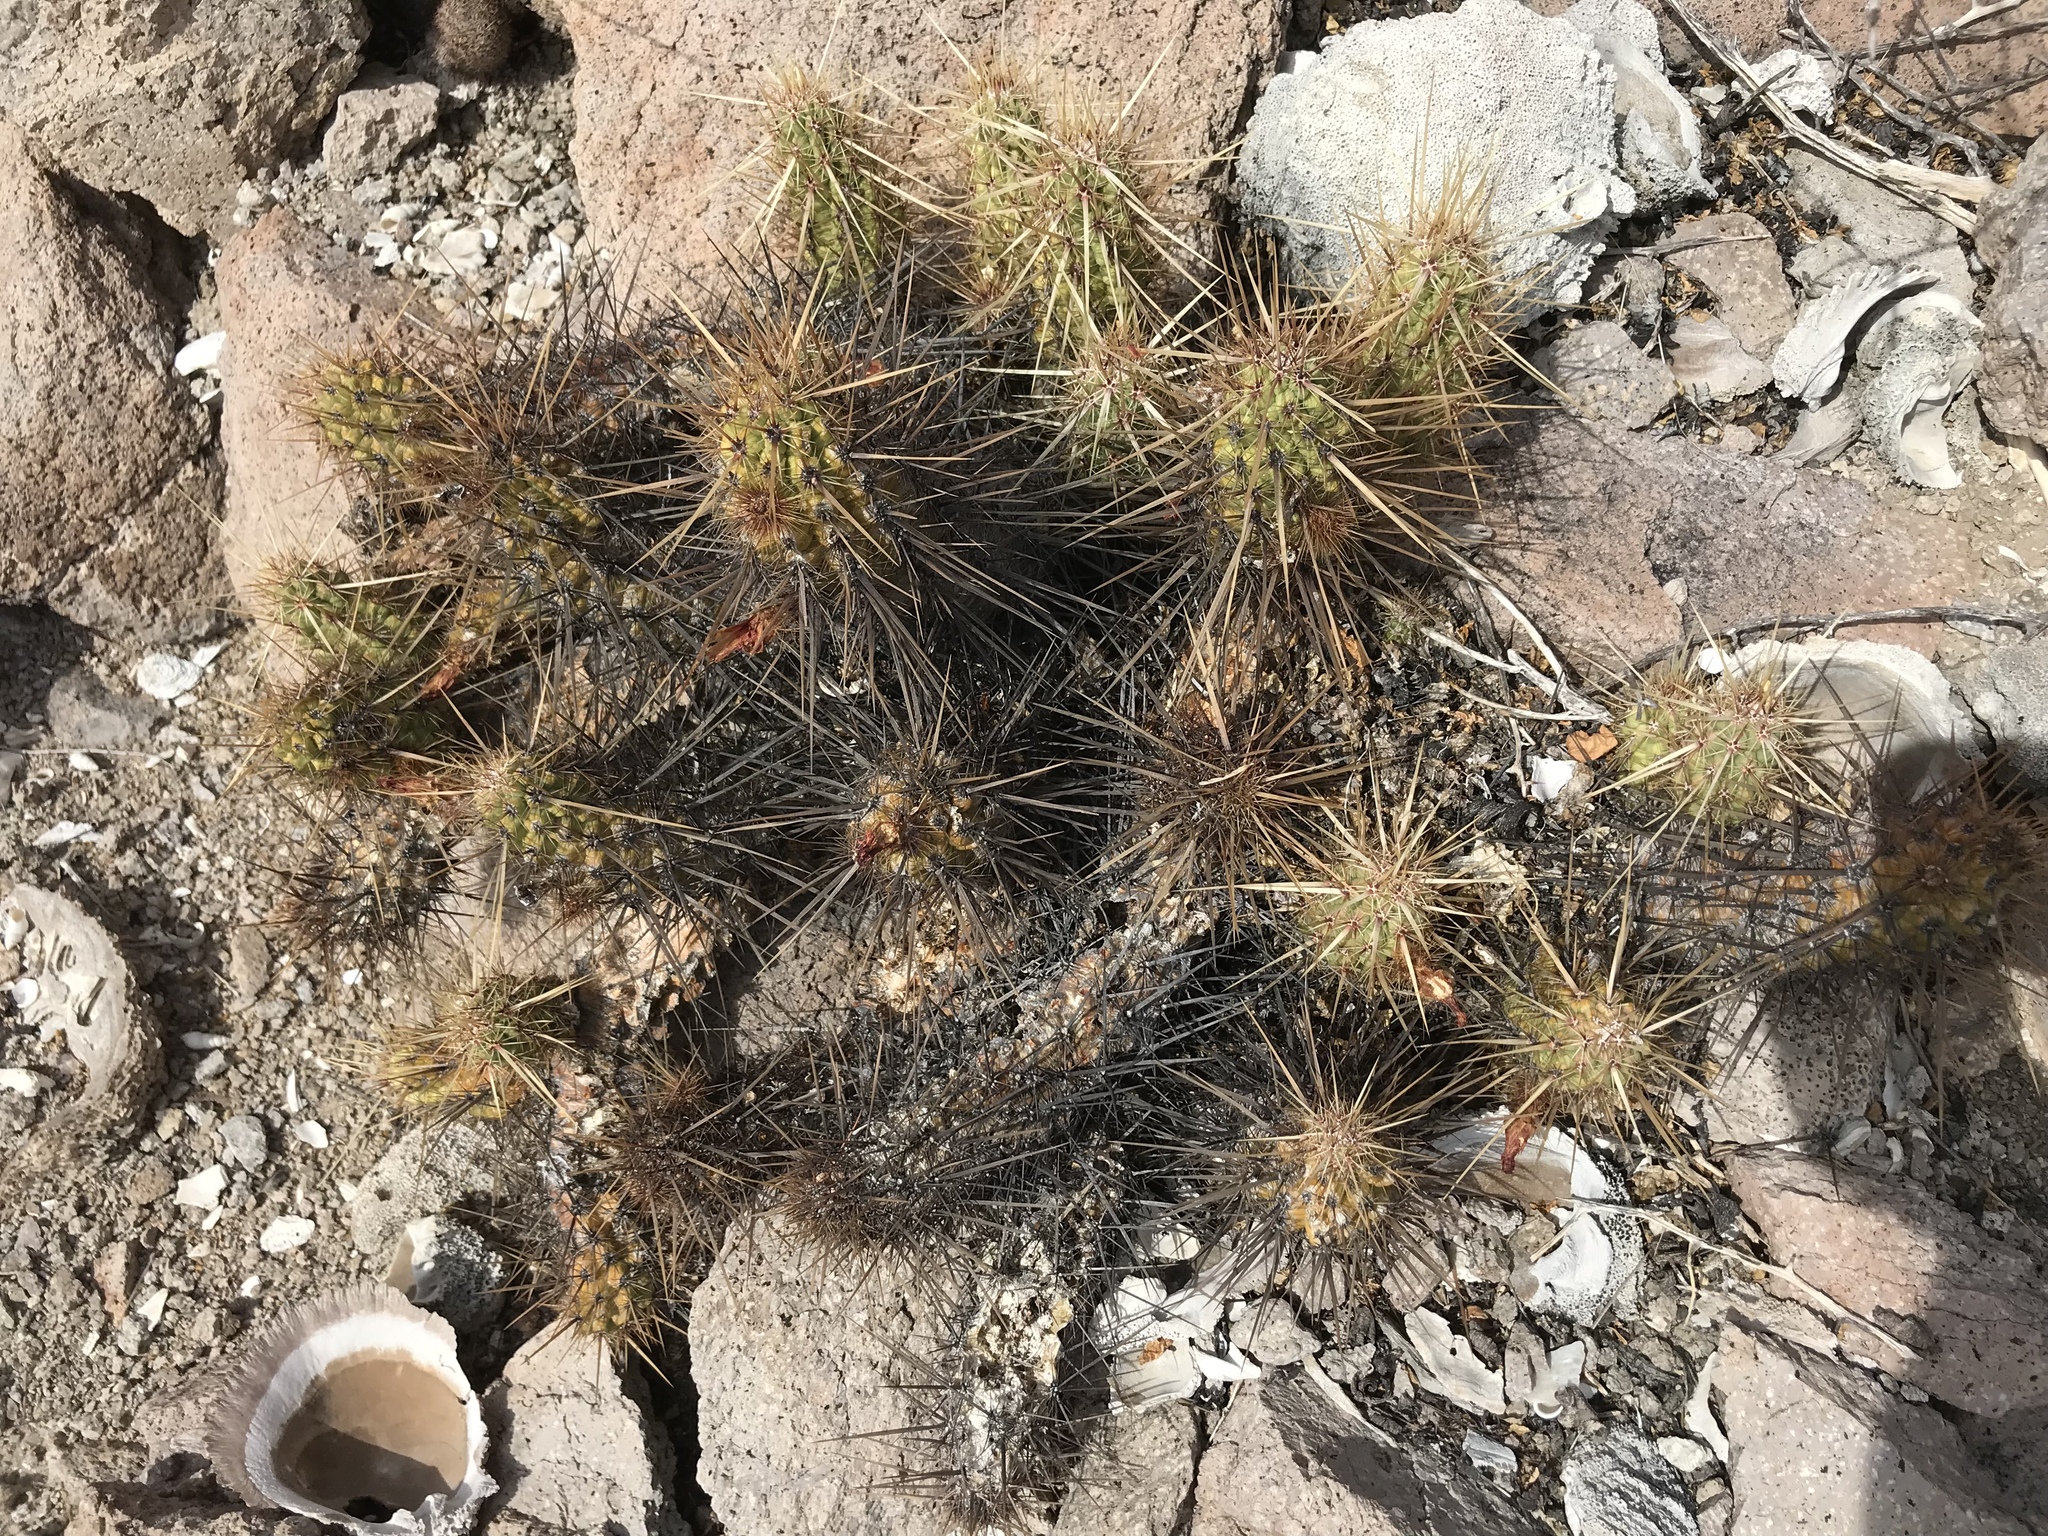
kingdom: Plantae
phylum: Tracheophyta
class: Magnoliopsida
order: Caryophyllales
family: Cactaceae
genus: Echinocereus
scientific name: Echinocereus brandegeei
